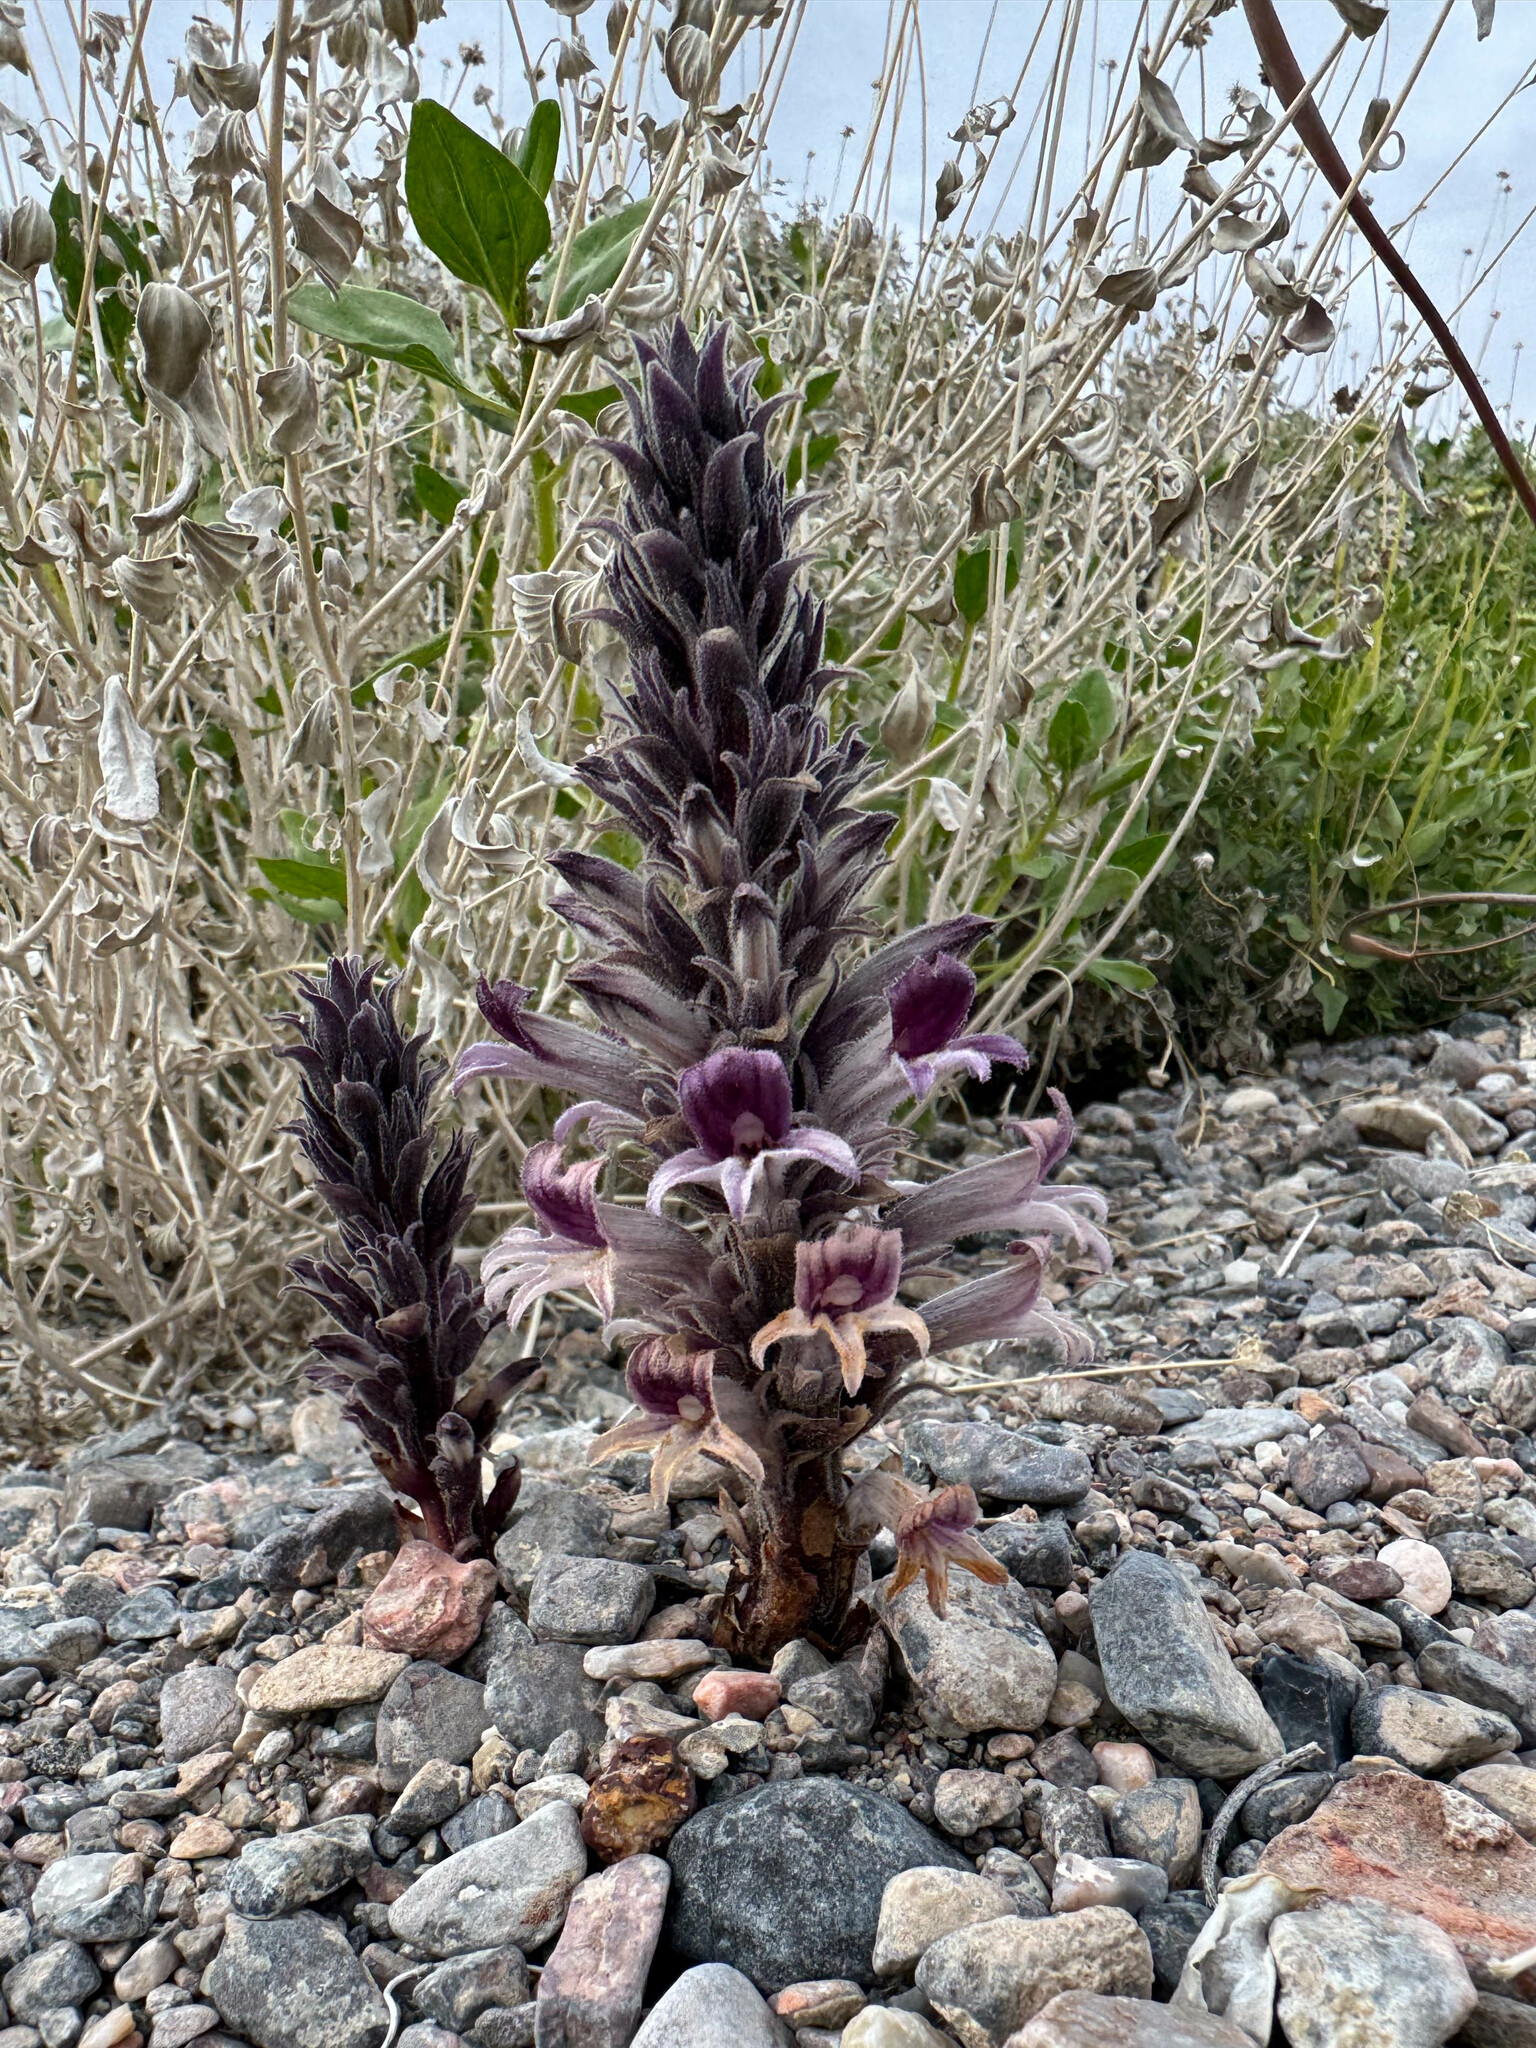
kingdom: Plantae
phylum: Tracheophyta
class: Magnoliopsida
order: Lamiales
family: Orobanchaceae
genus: Aphyllon
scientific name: Aphyllon cooperi
